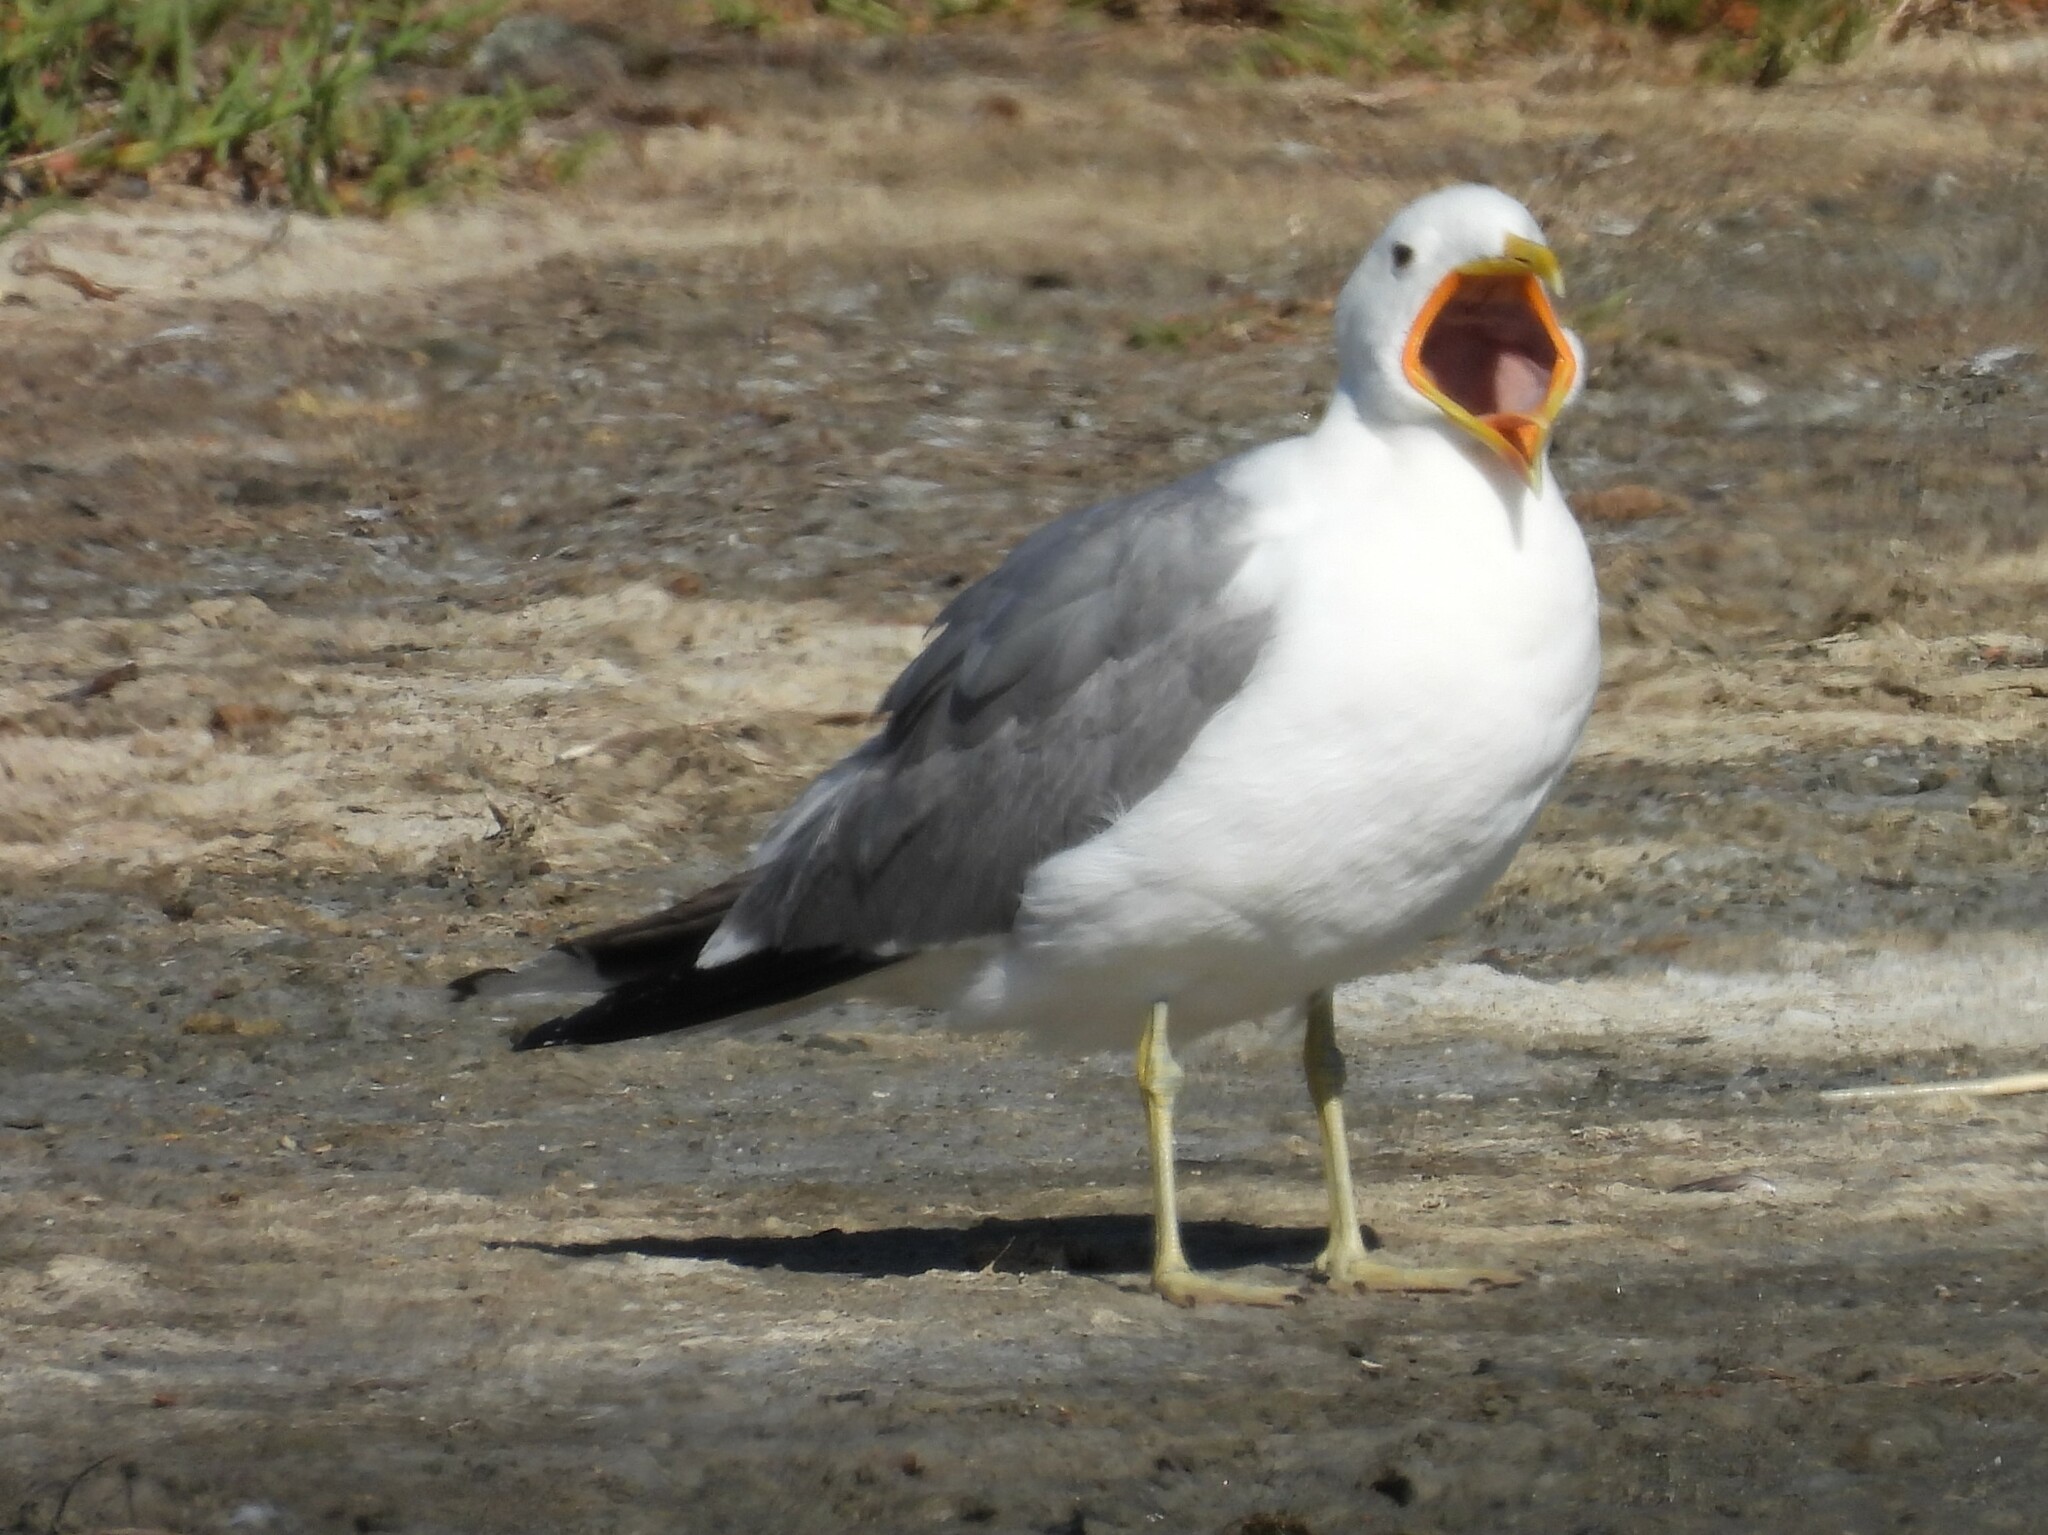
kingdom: Animalia
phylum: Chordata
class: Aves
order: Charadriiformes
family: Laridae
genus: Larus
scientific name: Larus californicus
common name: California gull
